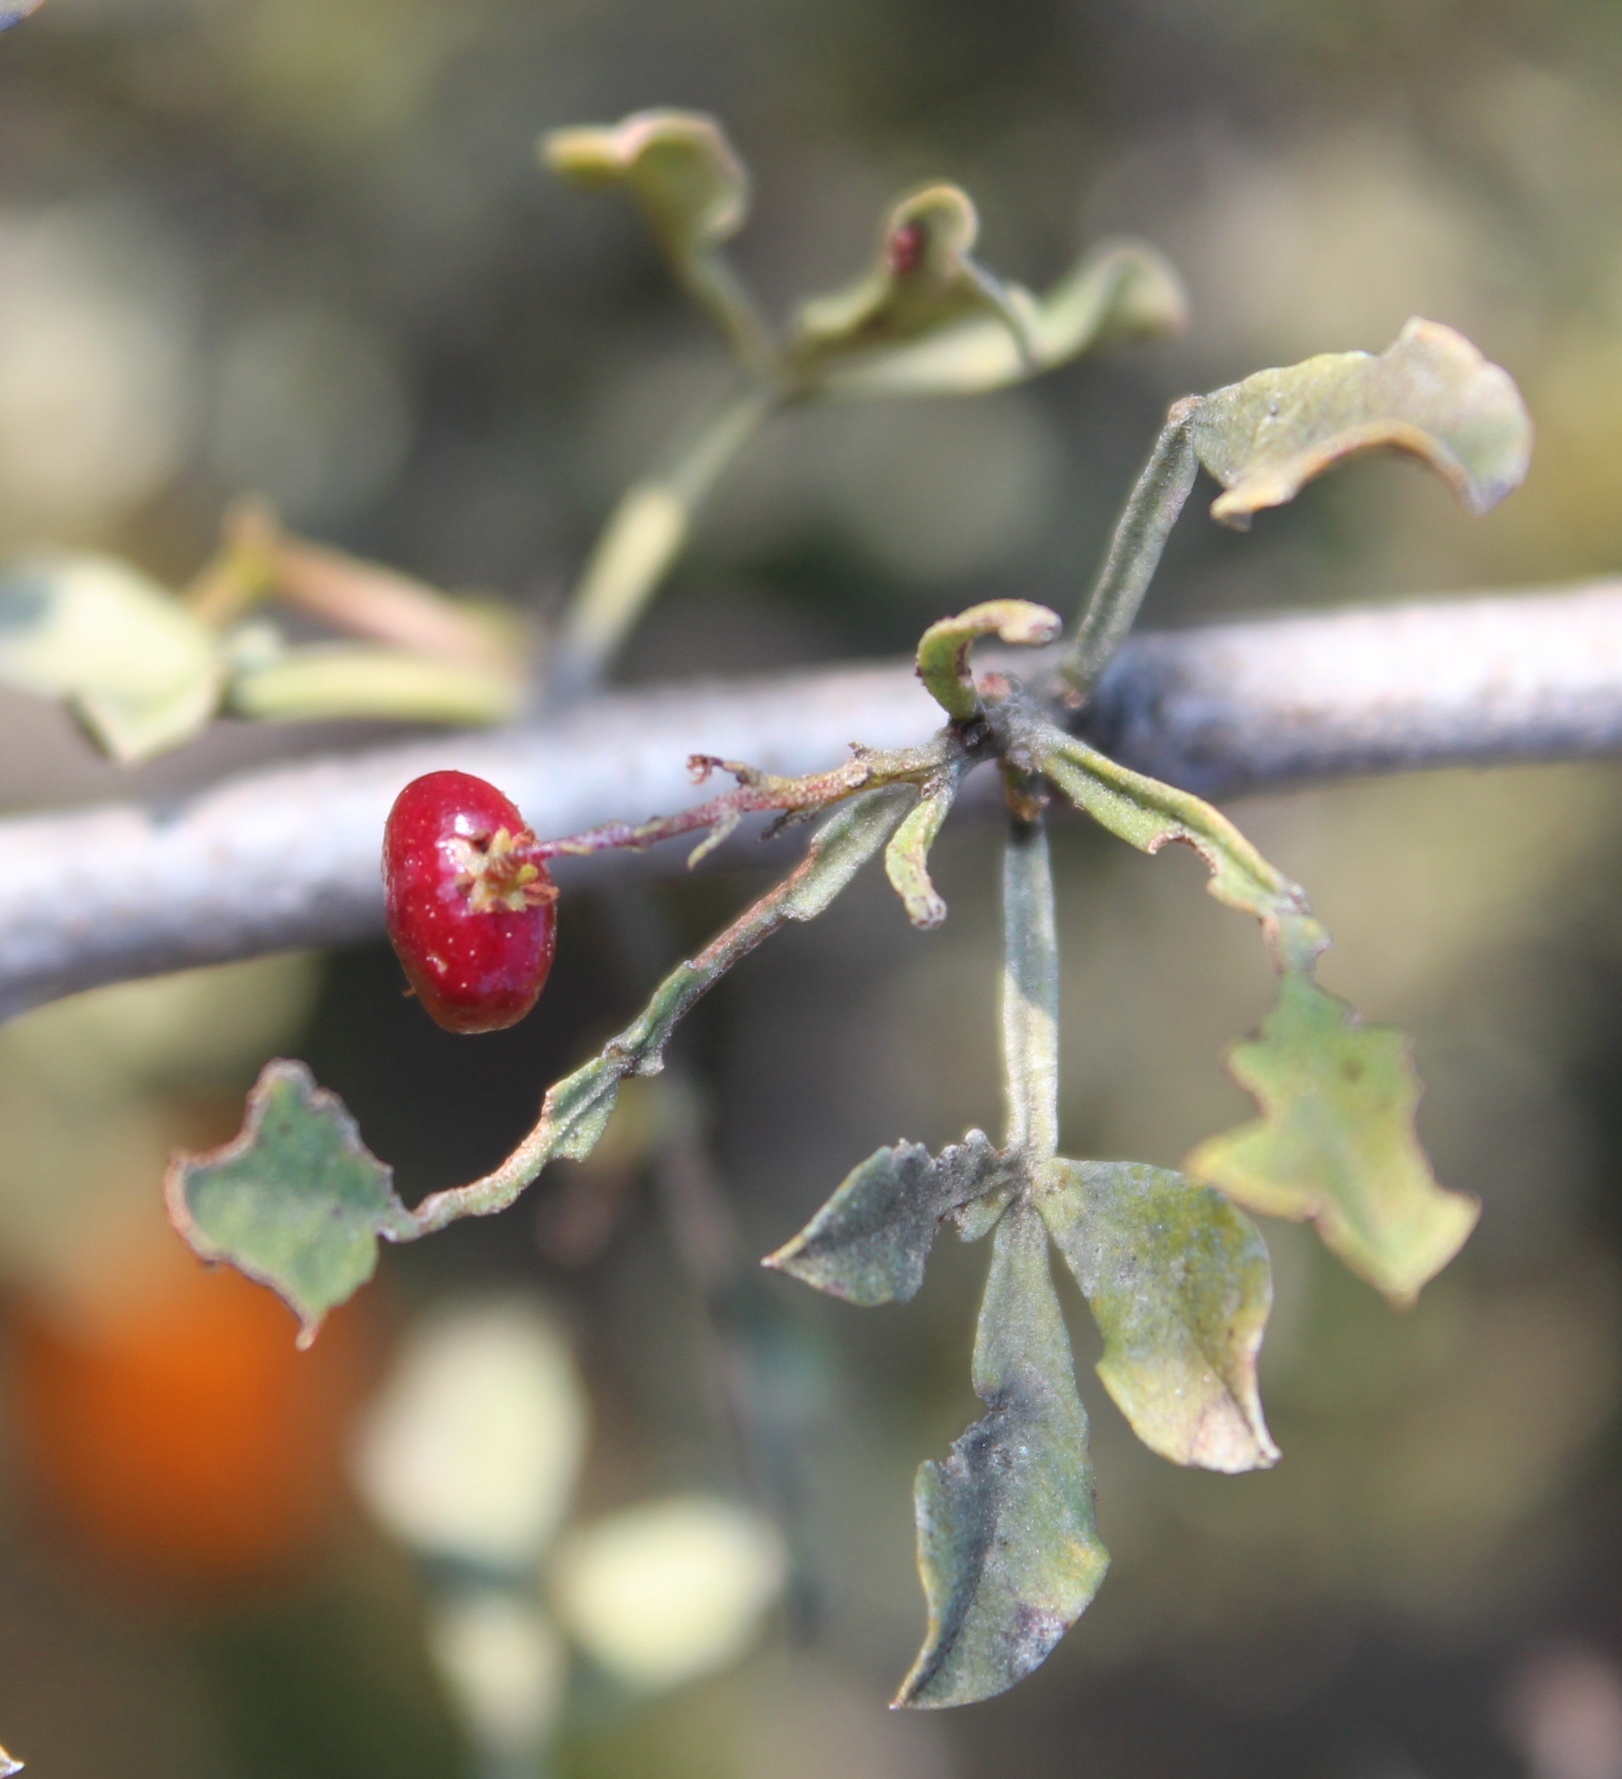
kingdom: Plantae
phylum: Tracheophyta
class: Magnoliopsida
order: Sapindales
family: Anacardiaceae
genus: Searsia
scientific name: Searsia undulata
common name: Namaqua kunibush
